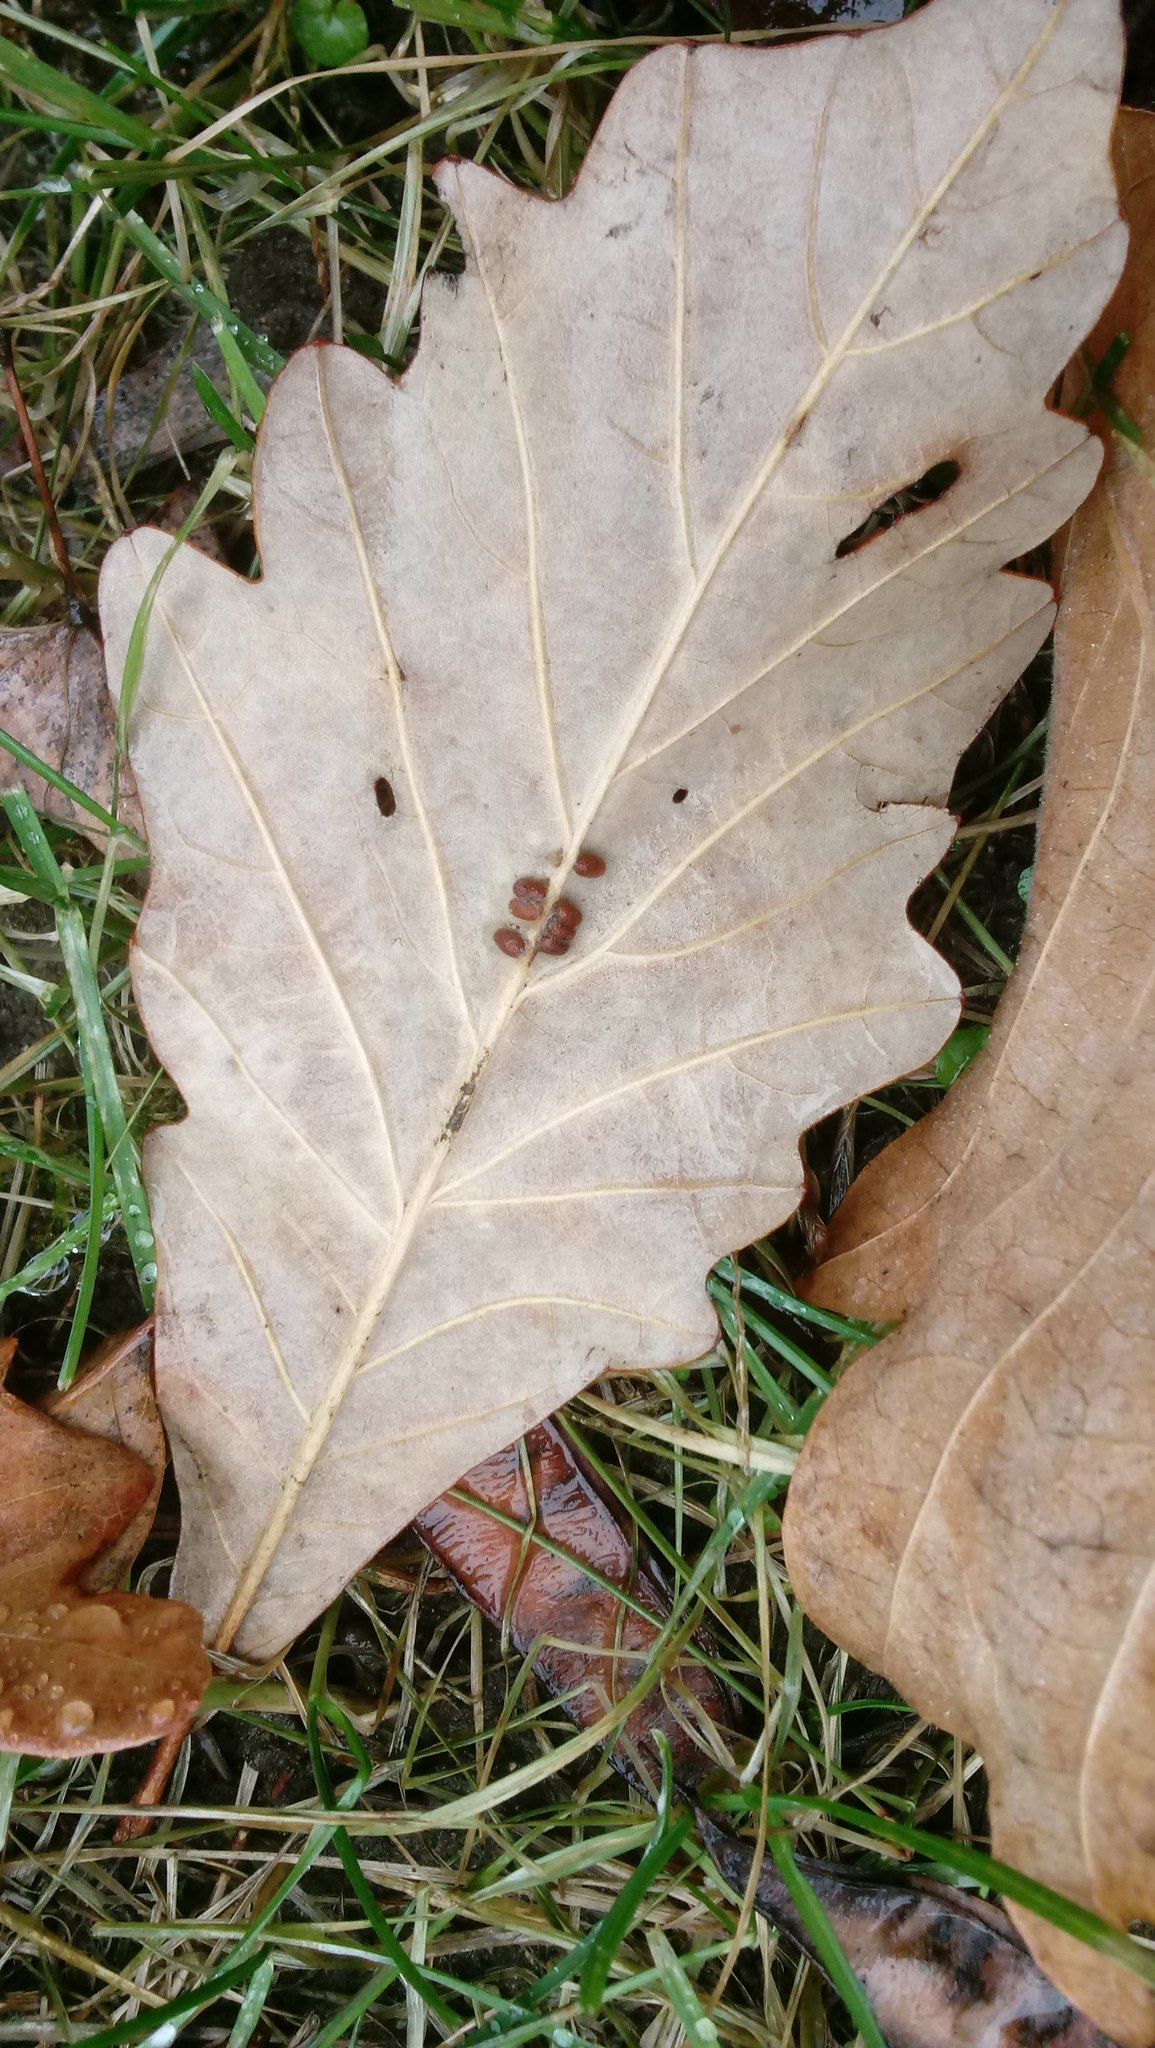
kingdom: Animalia
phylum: Arthropoda
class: Insecta
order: Hymenoptera
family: Cynipidae
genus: Andricus
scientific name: Andricus Druon ignotum
